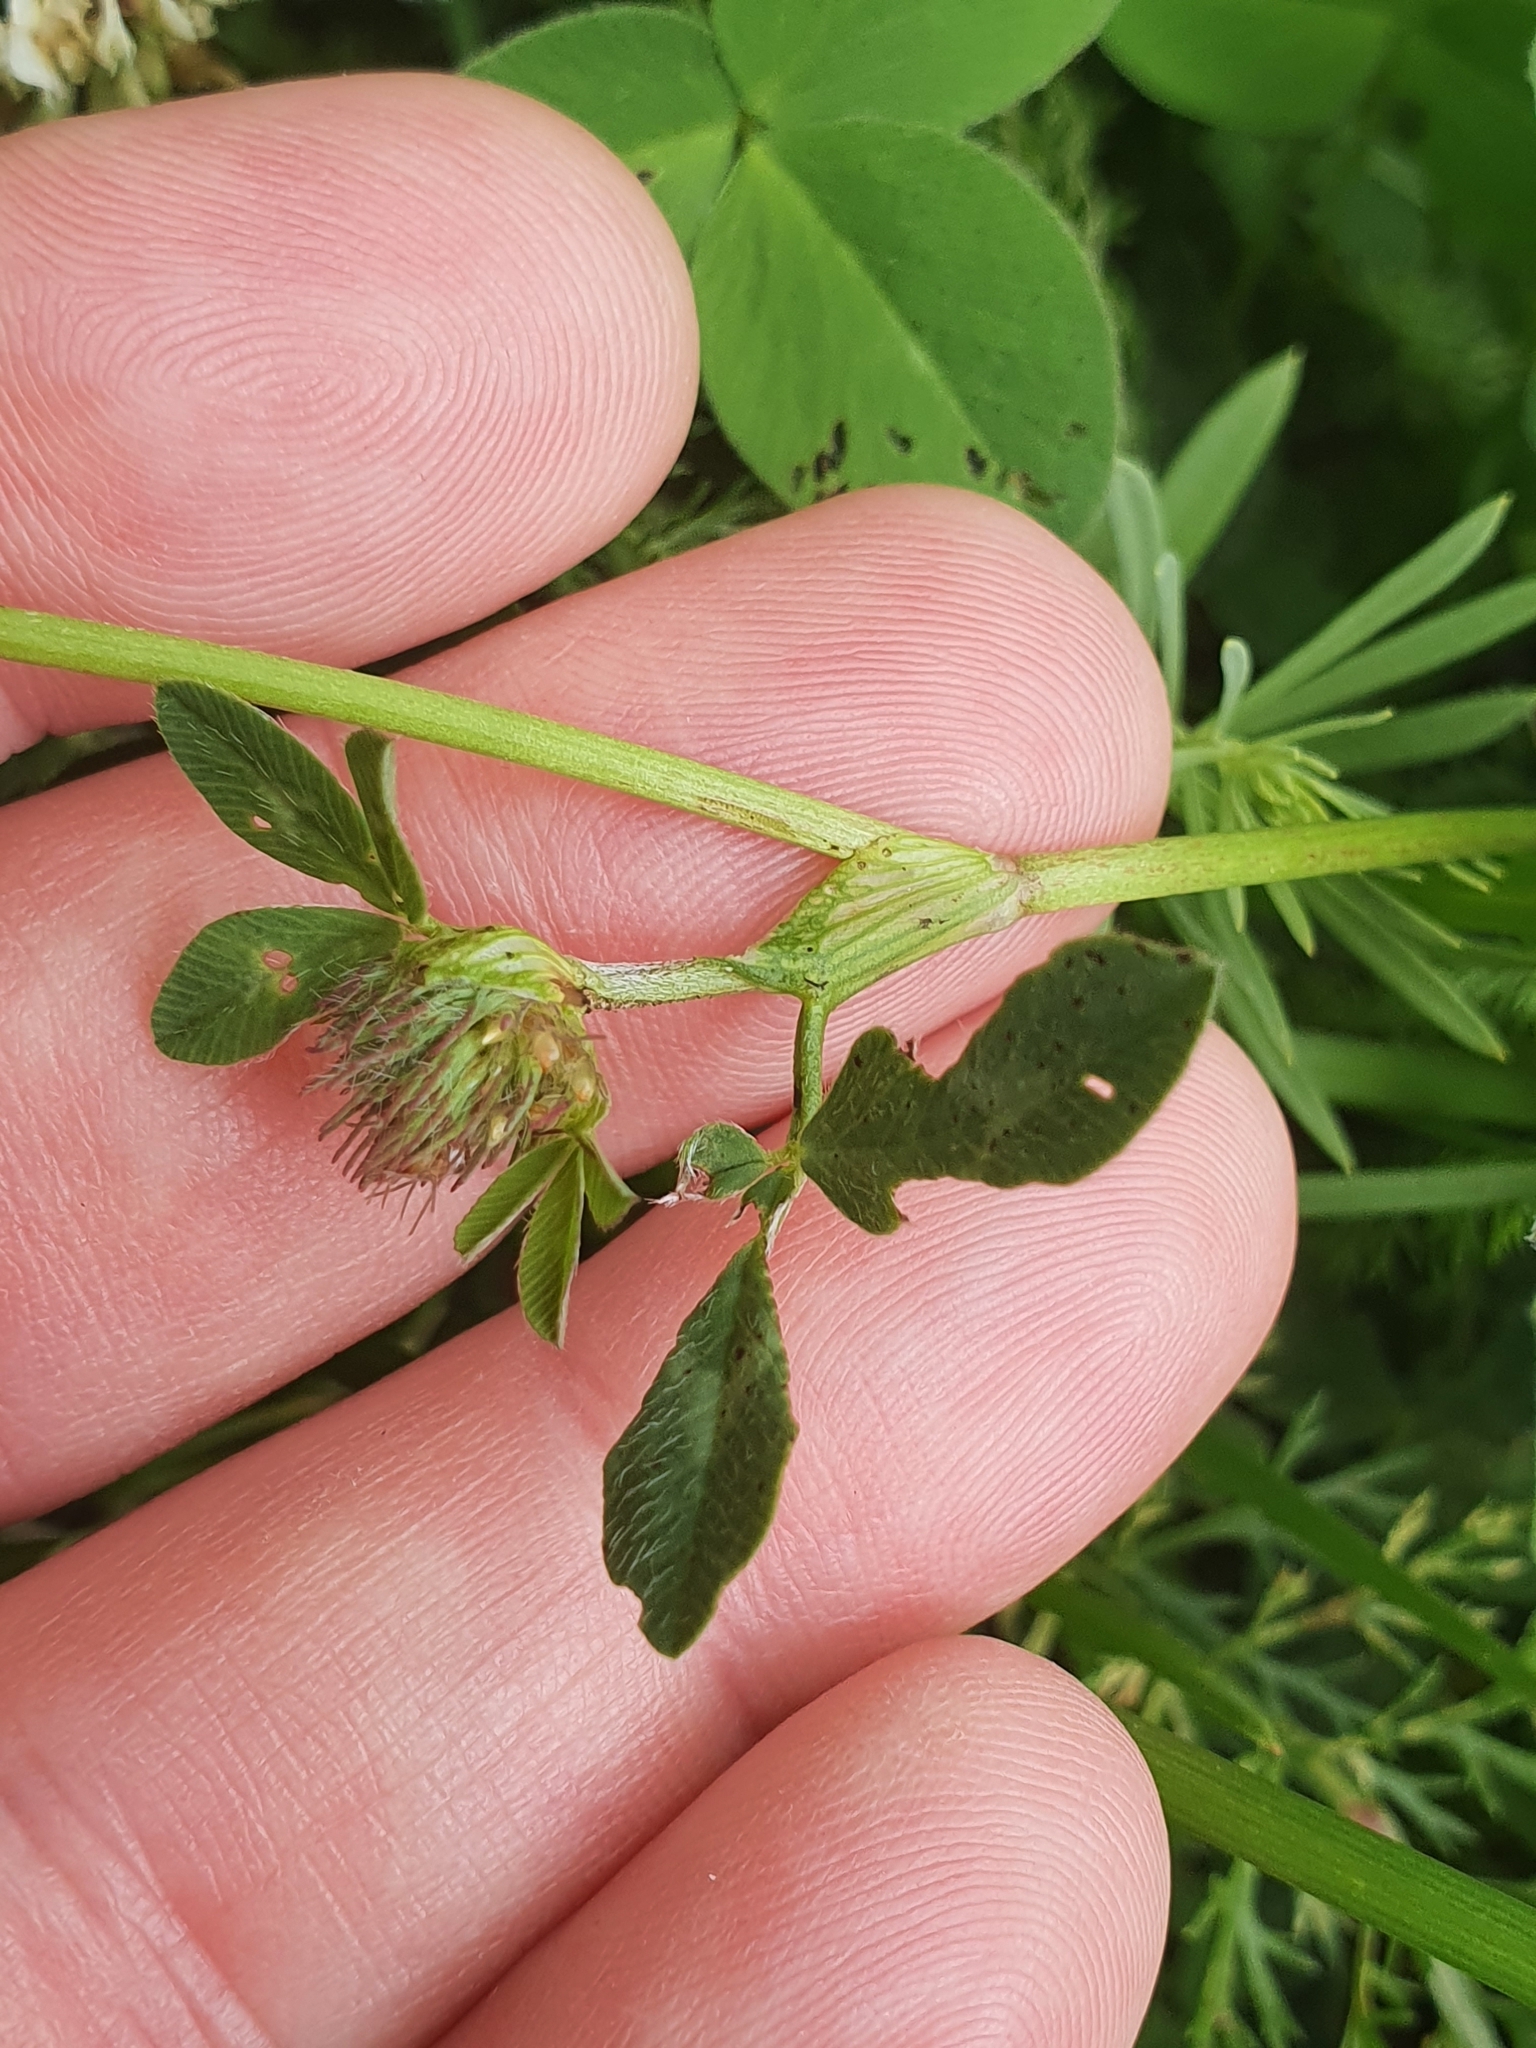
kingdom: Plantae
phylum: Tracheophyta
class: Magnoliopsida
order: Fabales
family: Fabaceae
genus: Trifolium
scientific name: Trifolium pratense
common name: Red clover
